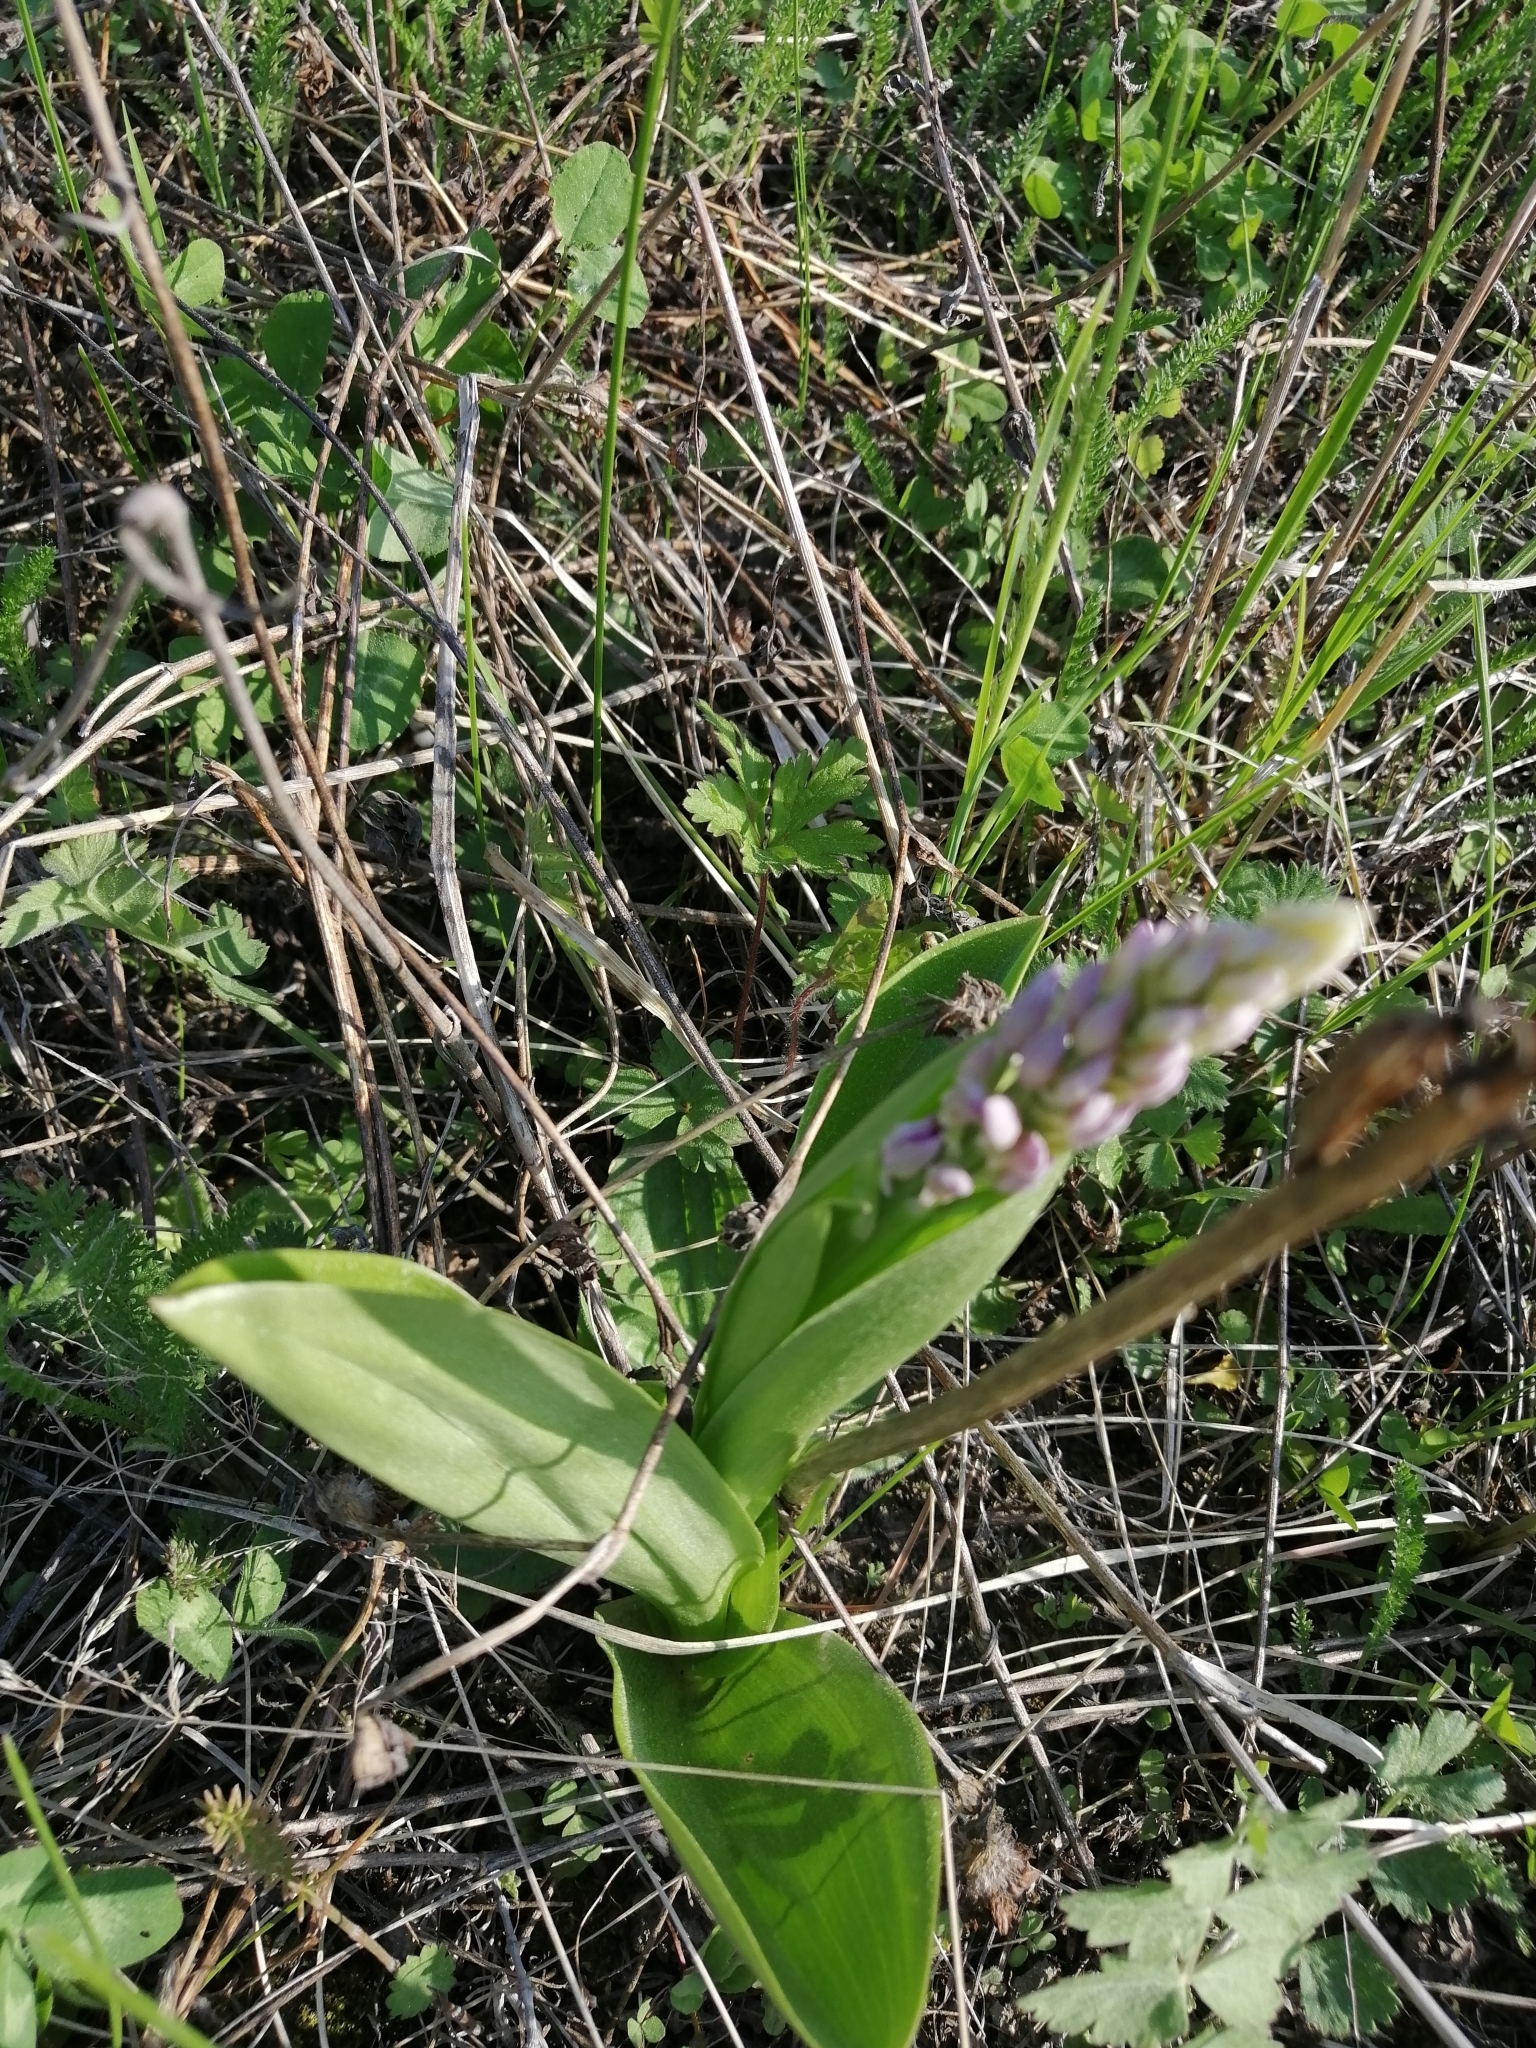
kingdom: Plantae
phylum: Tracheophyta
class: Liliopsida
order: Asparagales
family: Orchidaceae
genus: Orchis
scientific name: Orchis militaris
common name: Military orchid
